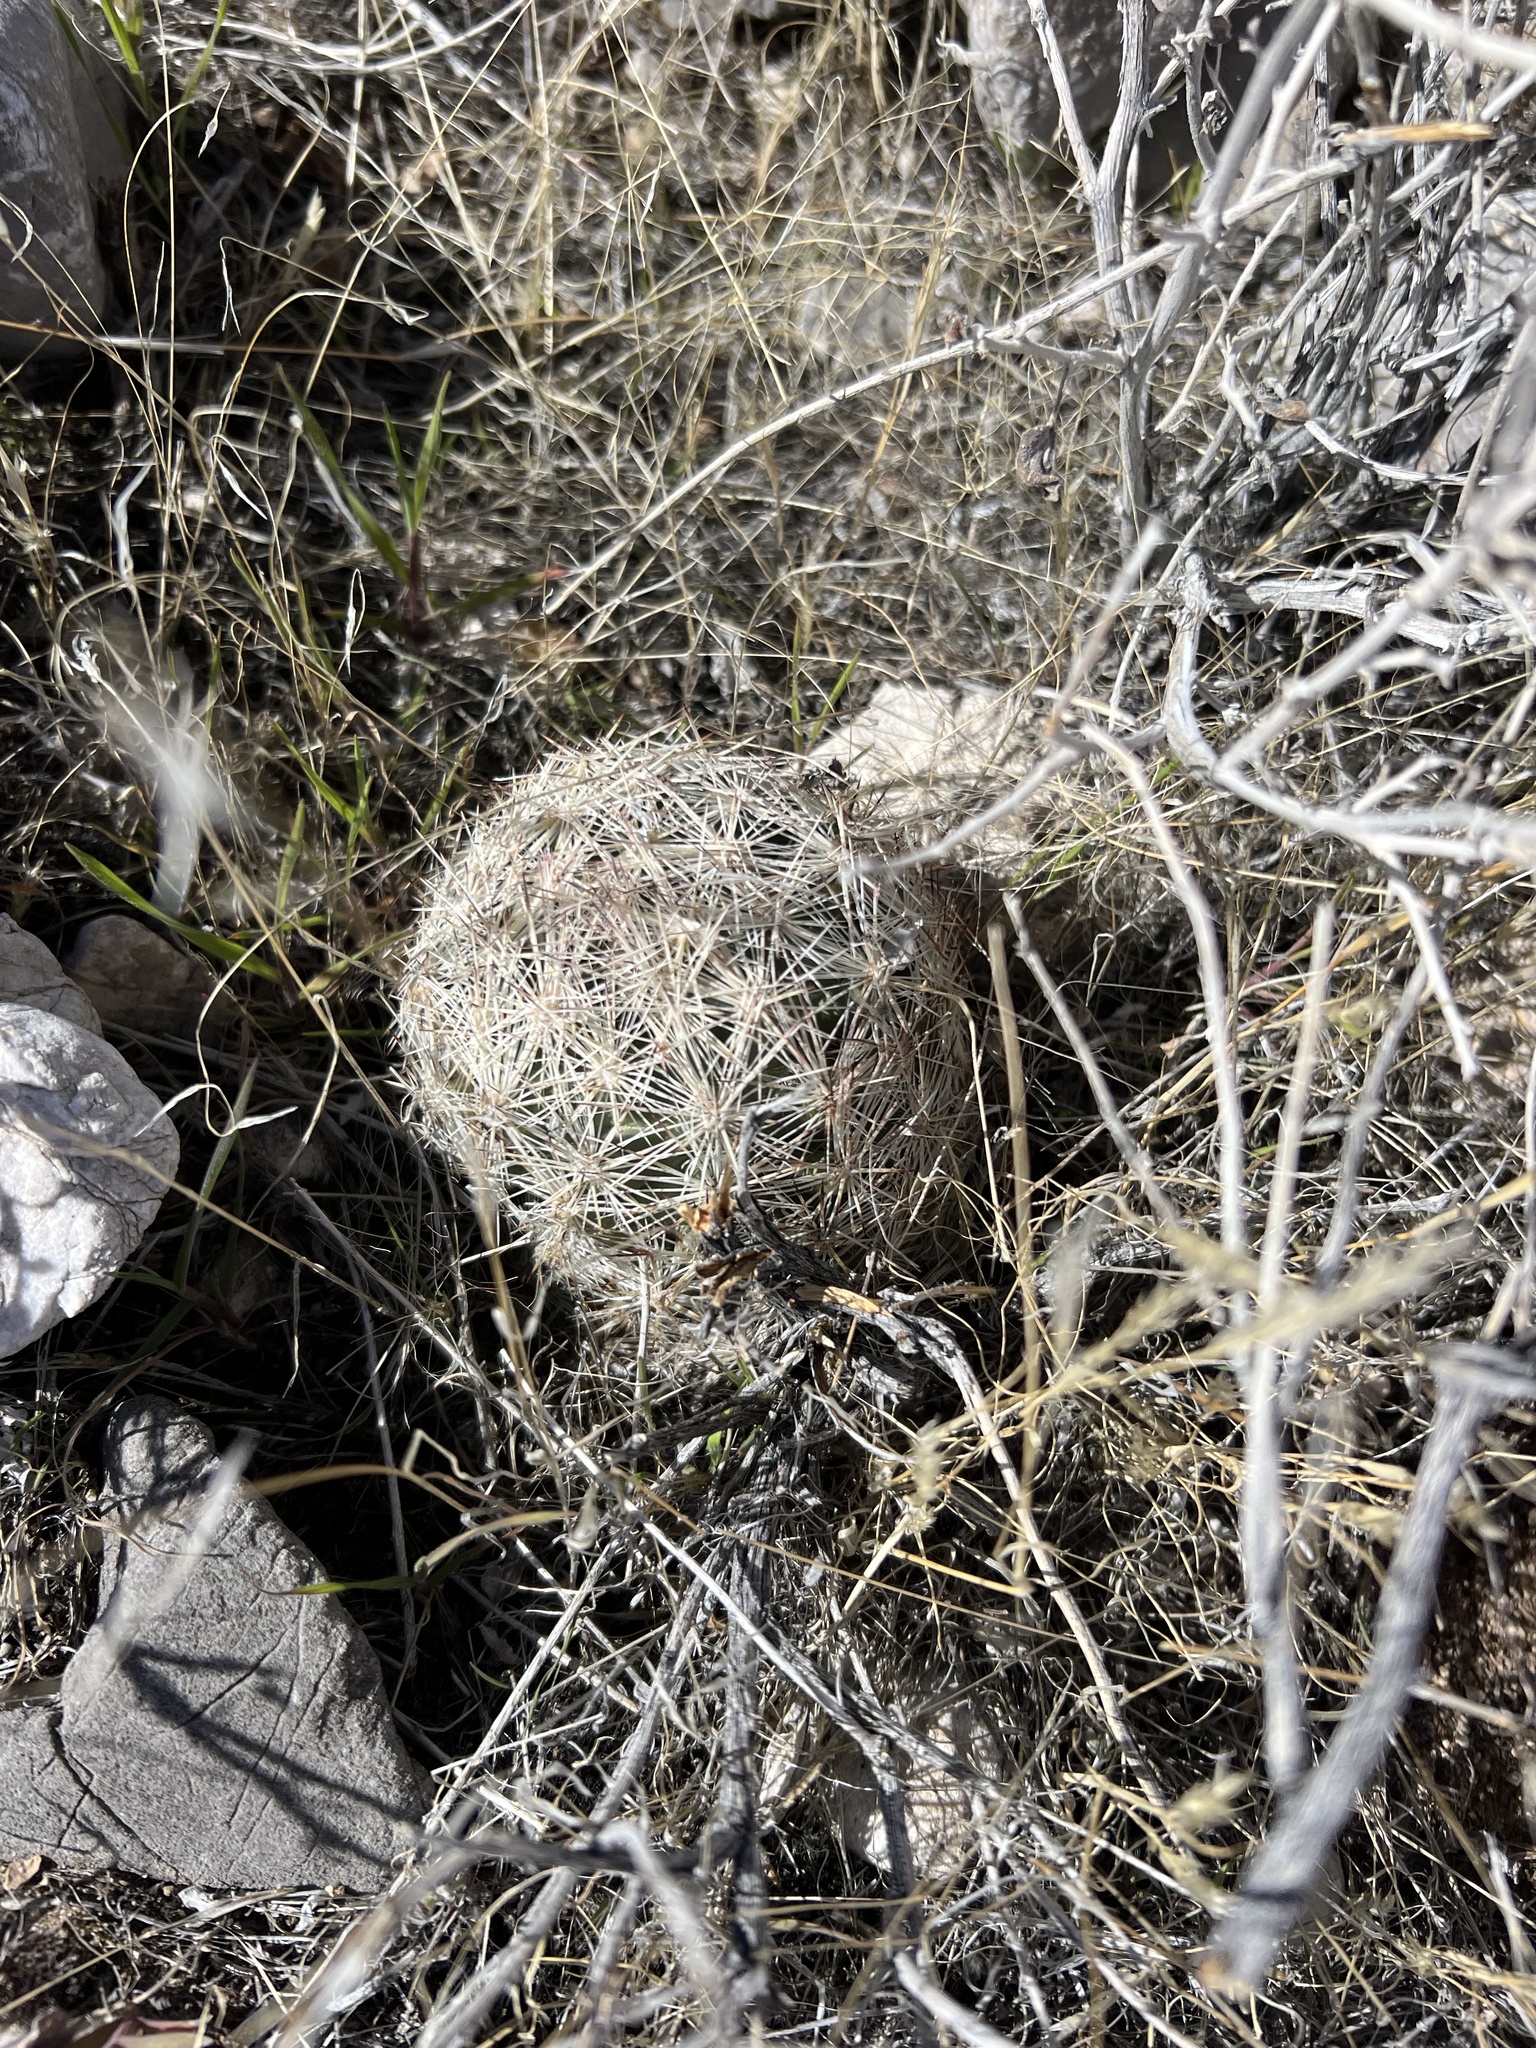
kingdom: Plantae
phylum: Tracheophyta
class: Magnoliopsida
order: Caryophyllales
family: Cactaceae
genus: Pelecyphora
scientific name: Pelecyphora dasyacantha
